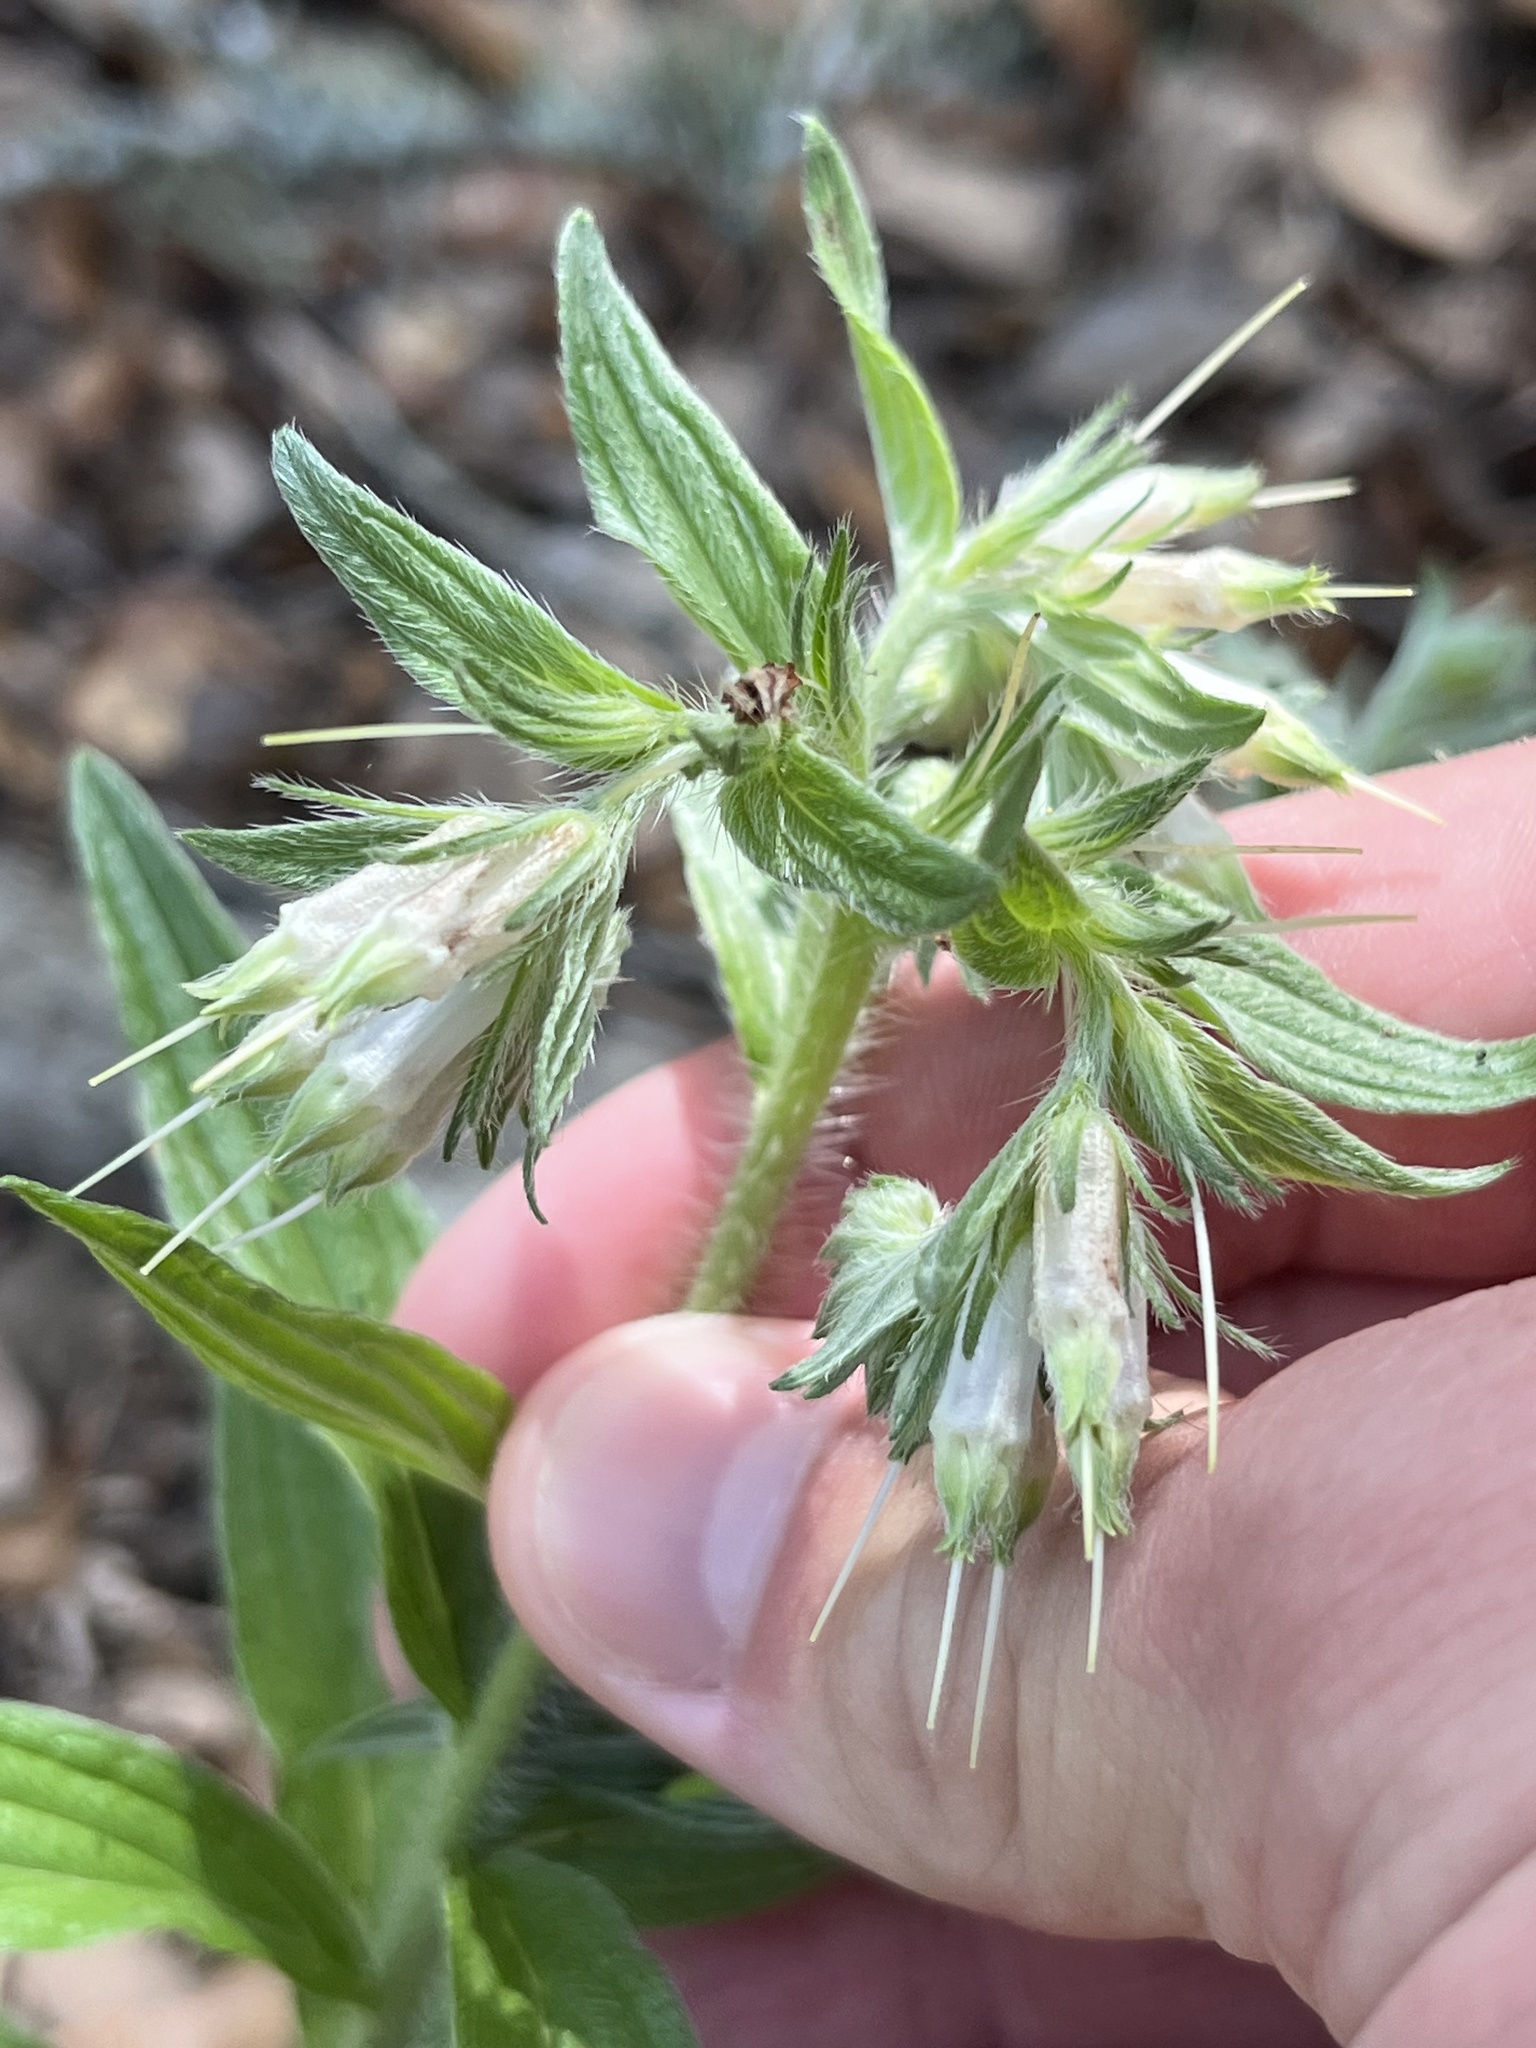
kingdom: Plantae
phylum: Tracheophyta
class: Magnoliopsida
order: Boraginales
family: Boraginaceae
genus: Lithospermum
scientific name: Lithospermum caroliniense
